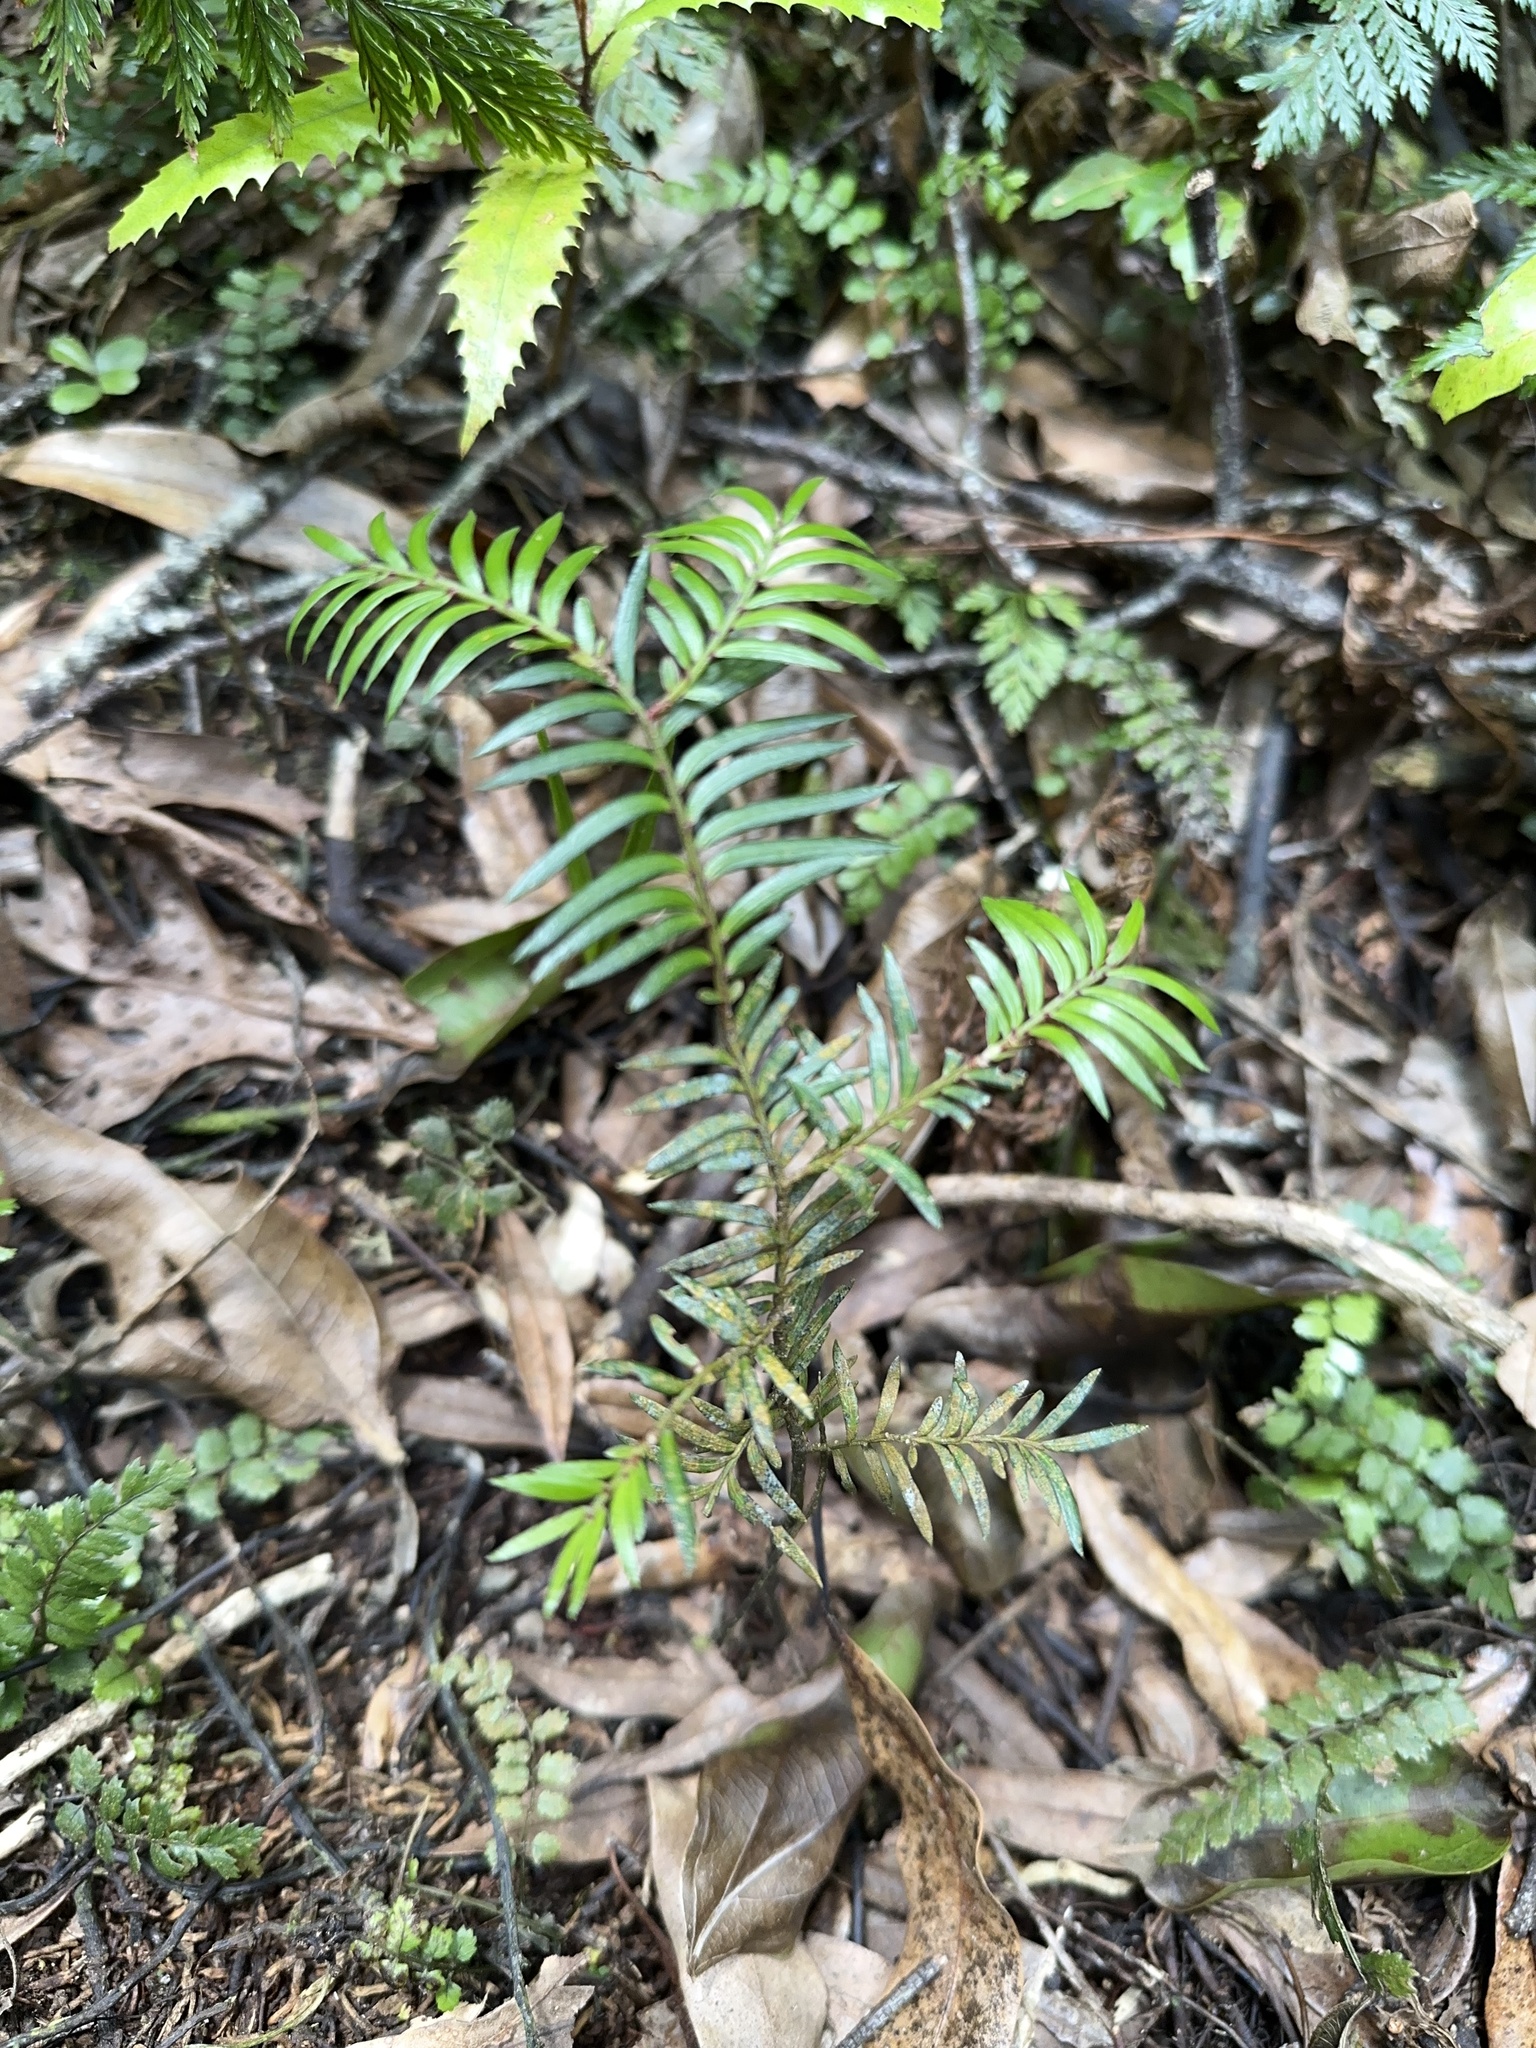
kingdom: Plantae
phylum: Tracheophyta
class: Pinopsida
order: Pinales
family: Podocarpaceae
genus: Prumnopitys
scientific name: Prumnopitys ferruginea
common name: Brown pine
